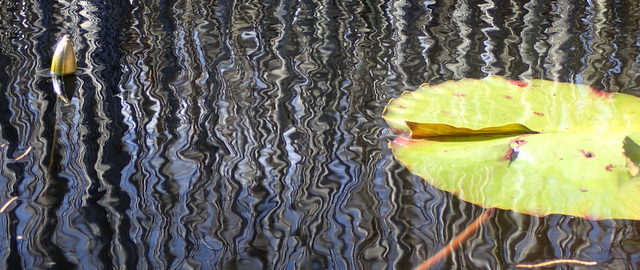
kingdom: Plantae
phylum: Tracheophyta
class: Magnoliopsida
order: Nymphaeales
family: Nymphaeaceae
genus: Nymphaea
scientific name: Nymphaea odorata
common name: Fragrant water-lily
